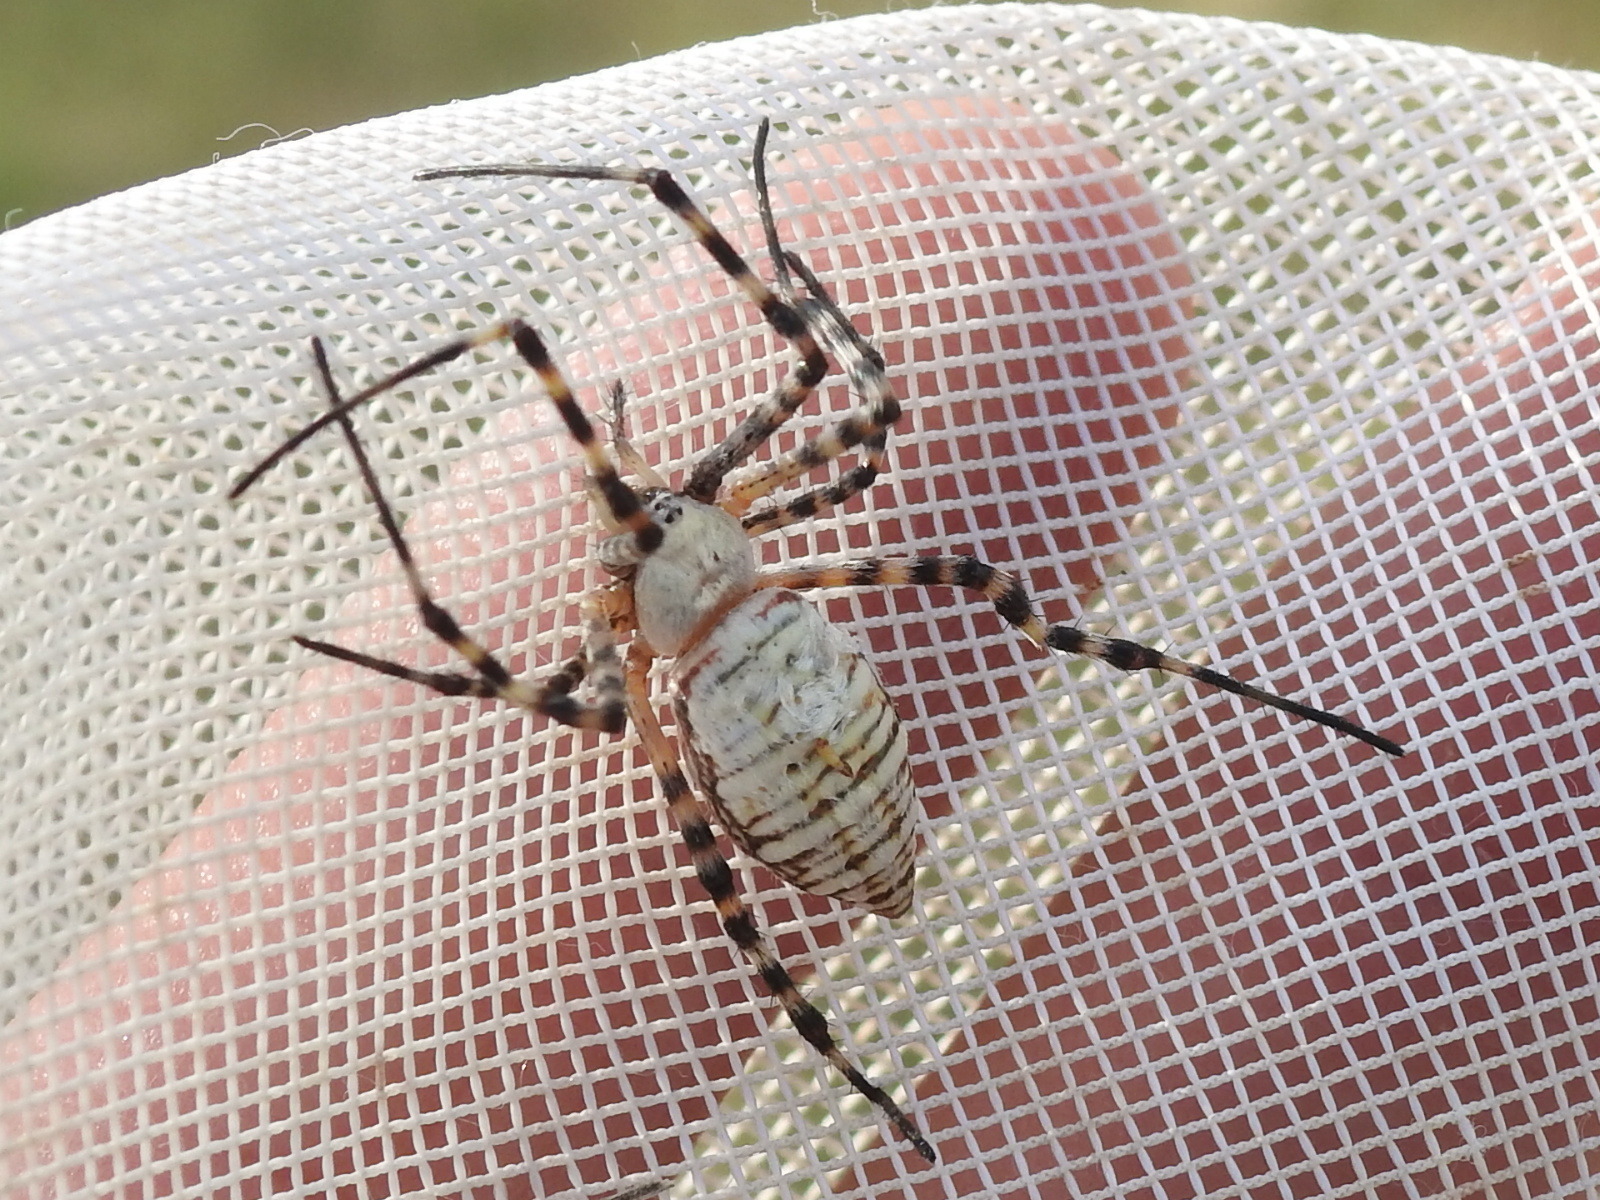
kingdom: Animalia
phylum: Arthropoda
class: Arachnida
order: Araneae
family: Araneidae
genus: Argiope
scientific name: Argiope trifasciata
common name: Banded garden spider
